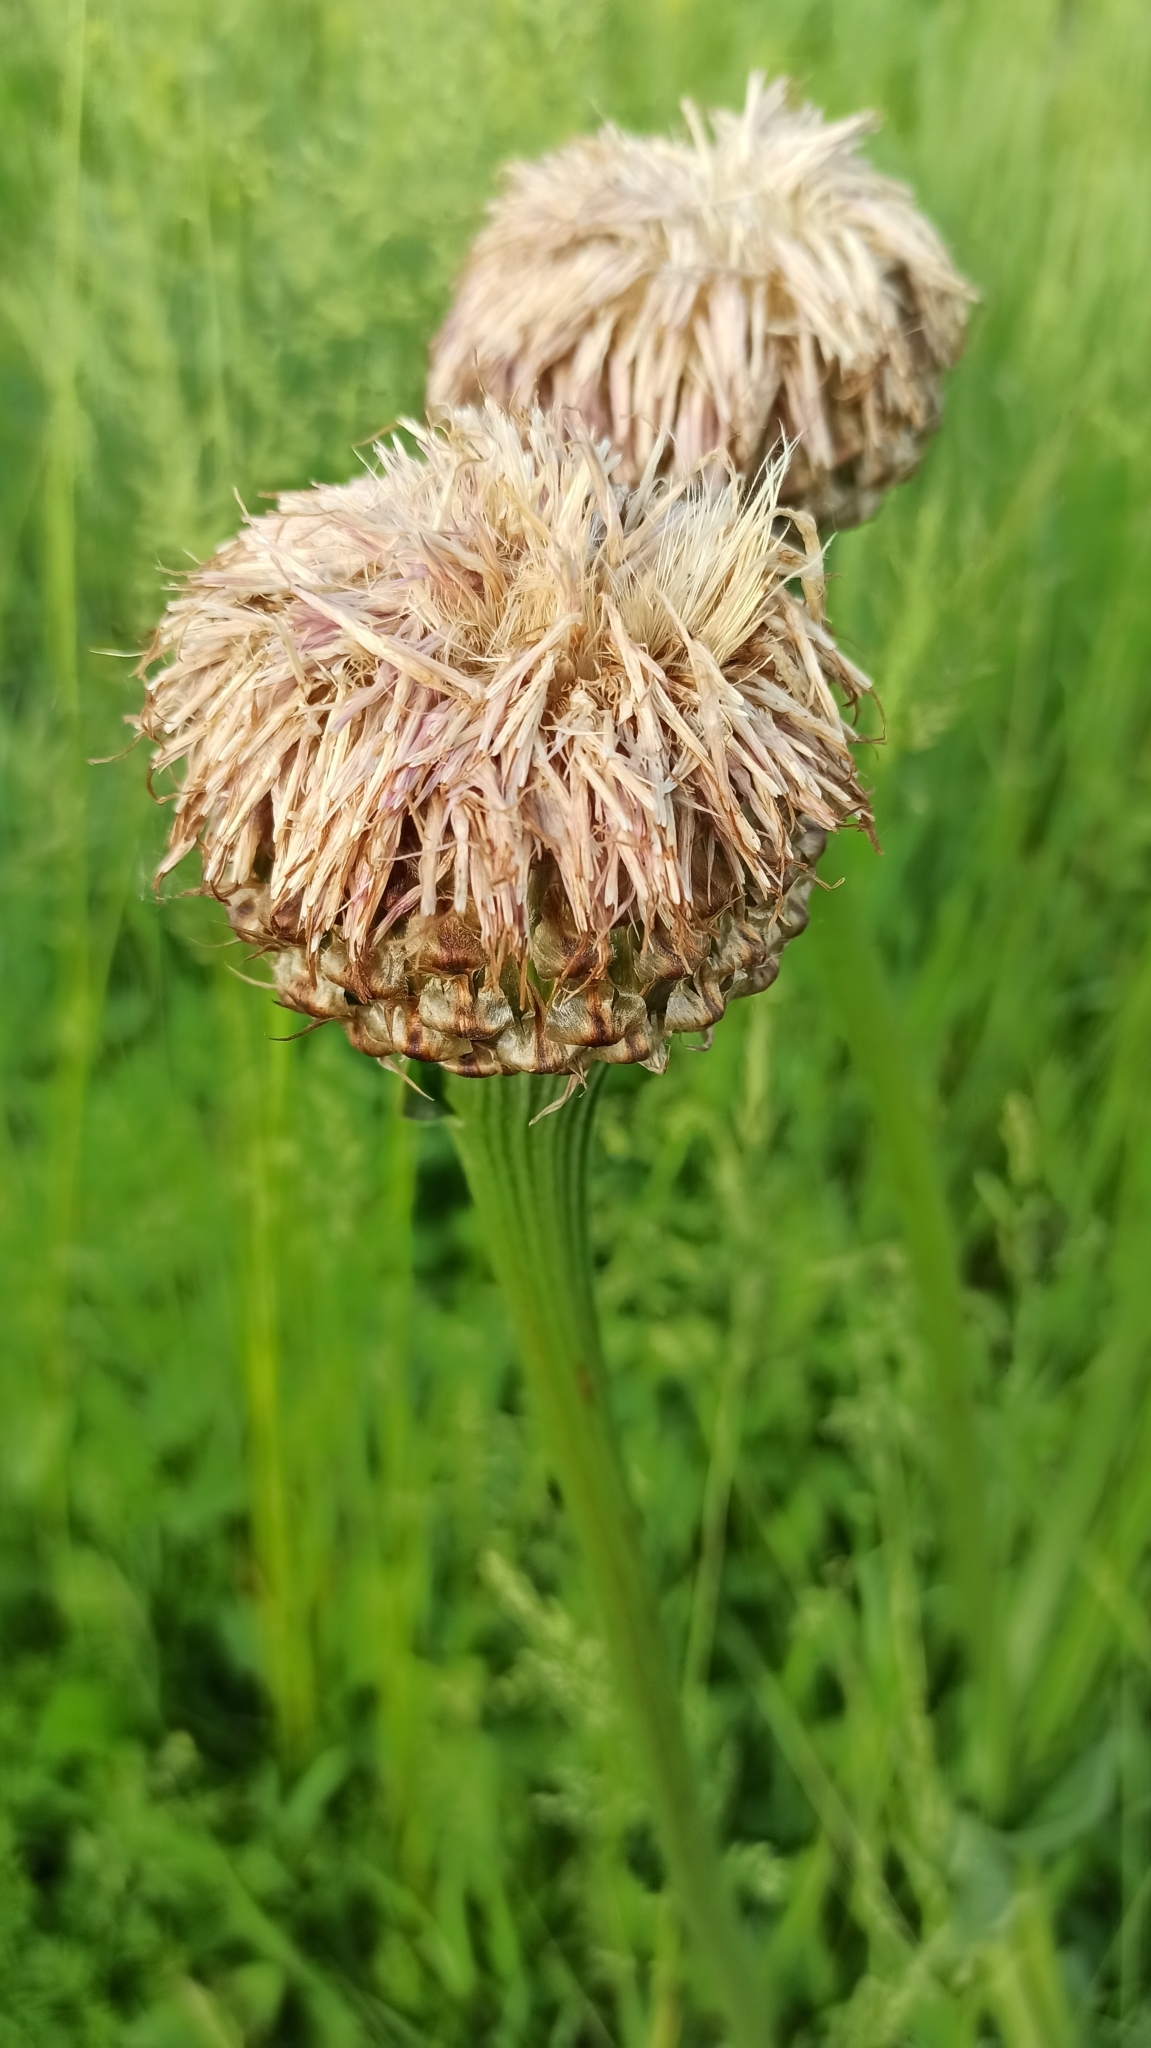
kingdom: Plantae
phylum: Tracheophyta
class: Magnoliopsida
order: Asterales
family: Asteraceae
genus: Leuzea
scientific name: Leuzea carthamoides
